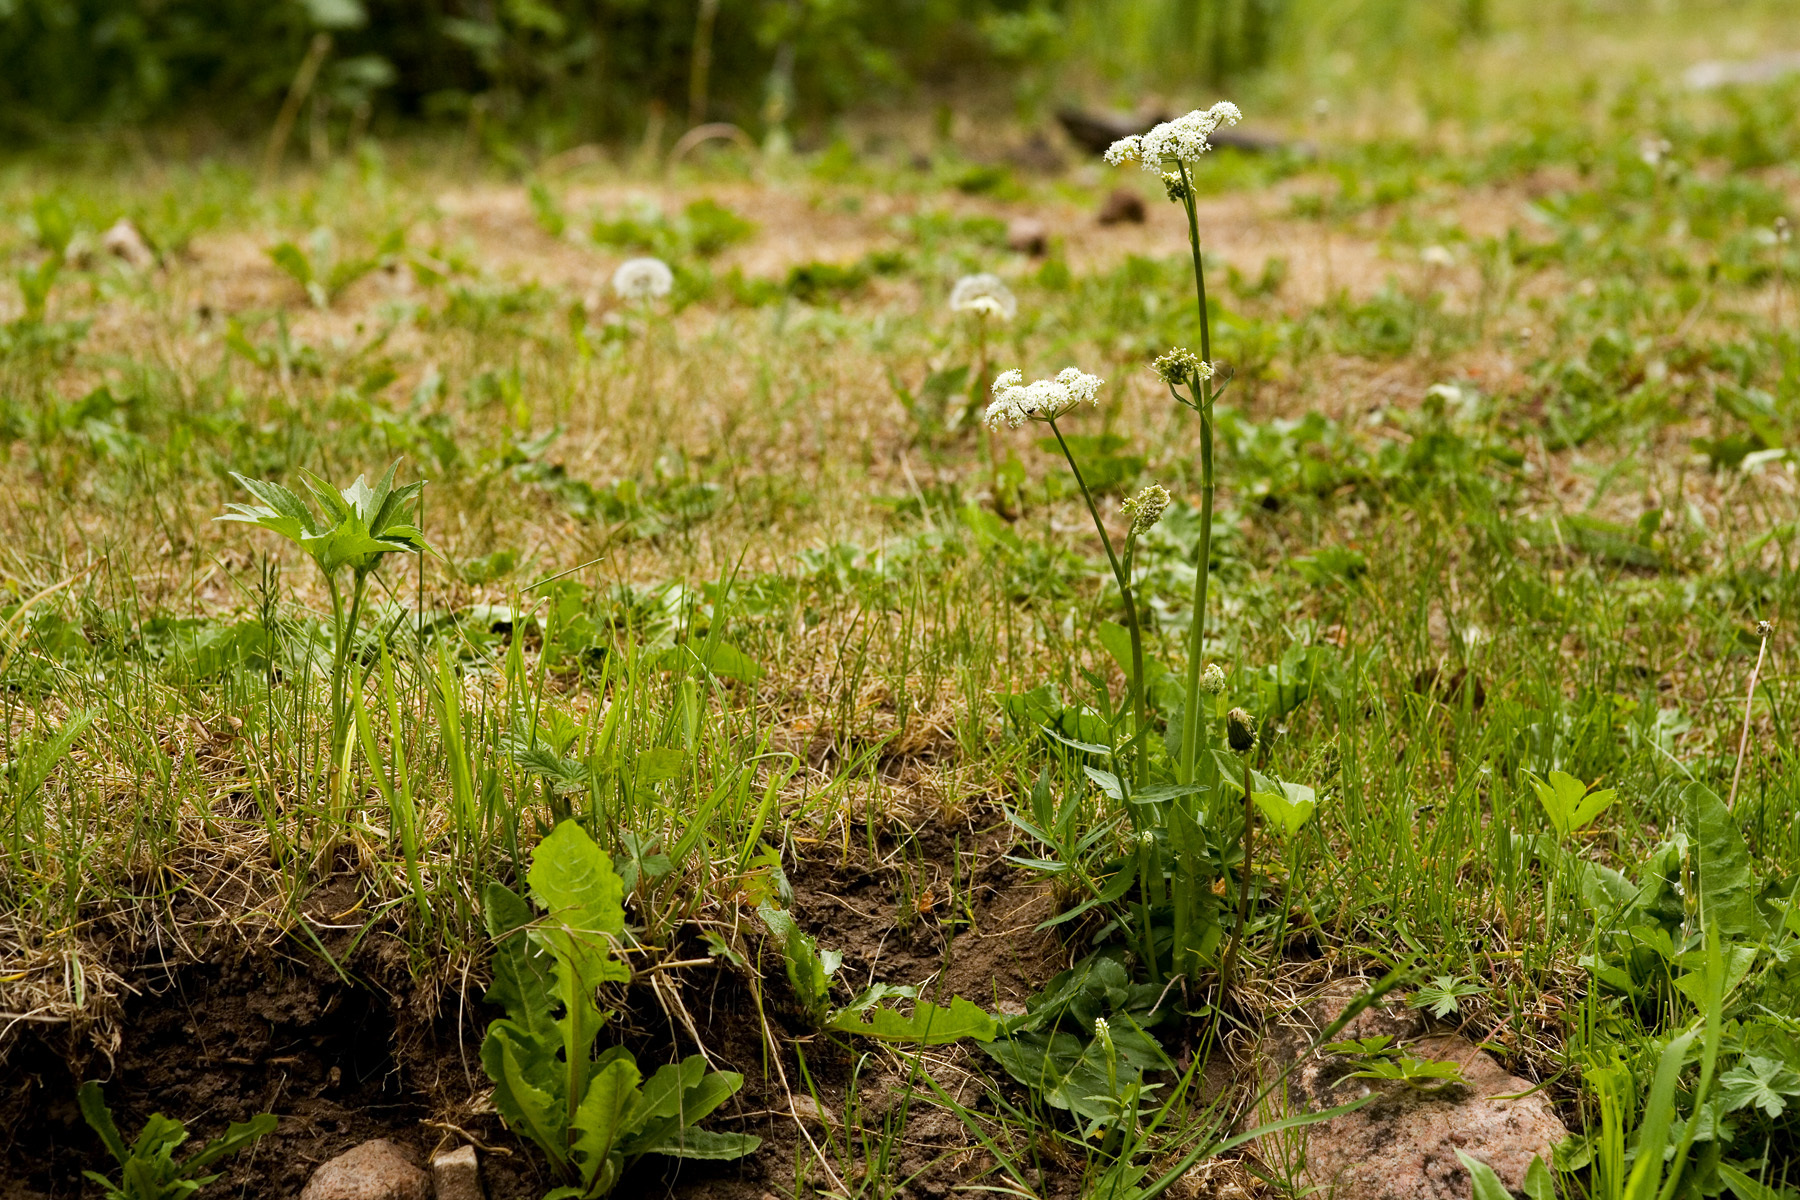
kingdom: Plantae
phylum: Tracheophyta
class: Magnoliopsida
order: Apiales
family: Apiaceae
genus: Oxypolis
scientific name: Oxypolis fendleri
